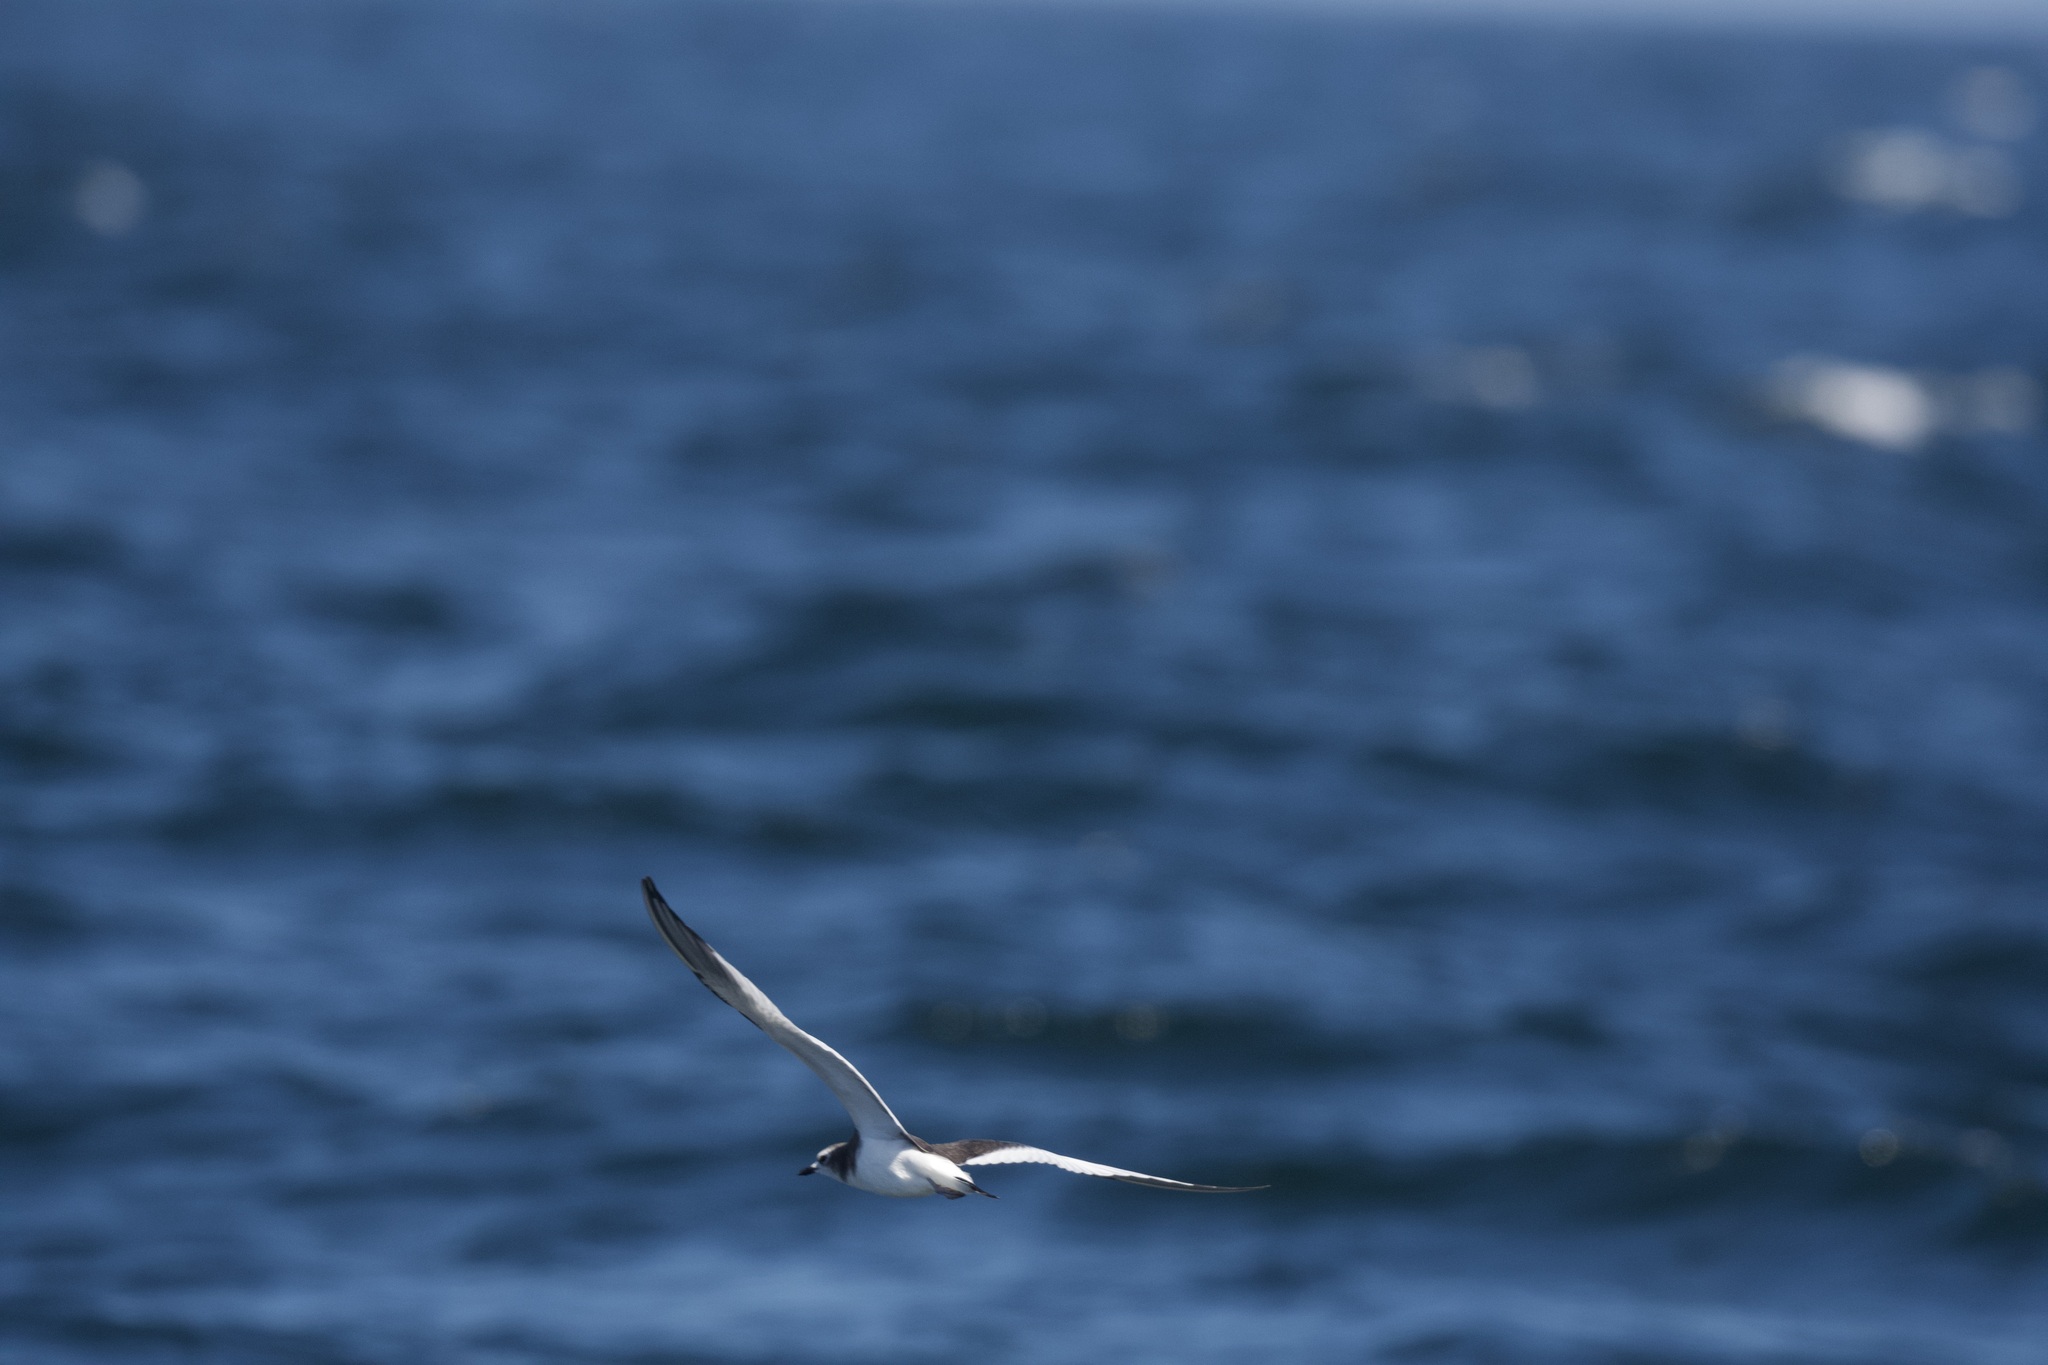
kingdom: Animalia
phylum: Chordata
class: Aves
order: Charadriiformes
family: Laridae
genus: Xema
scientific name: Xema sabini
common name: Sabine's gull
